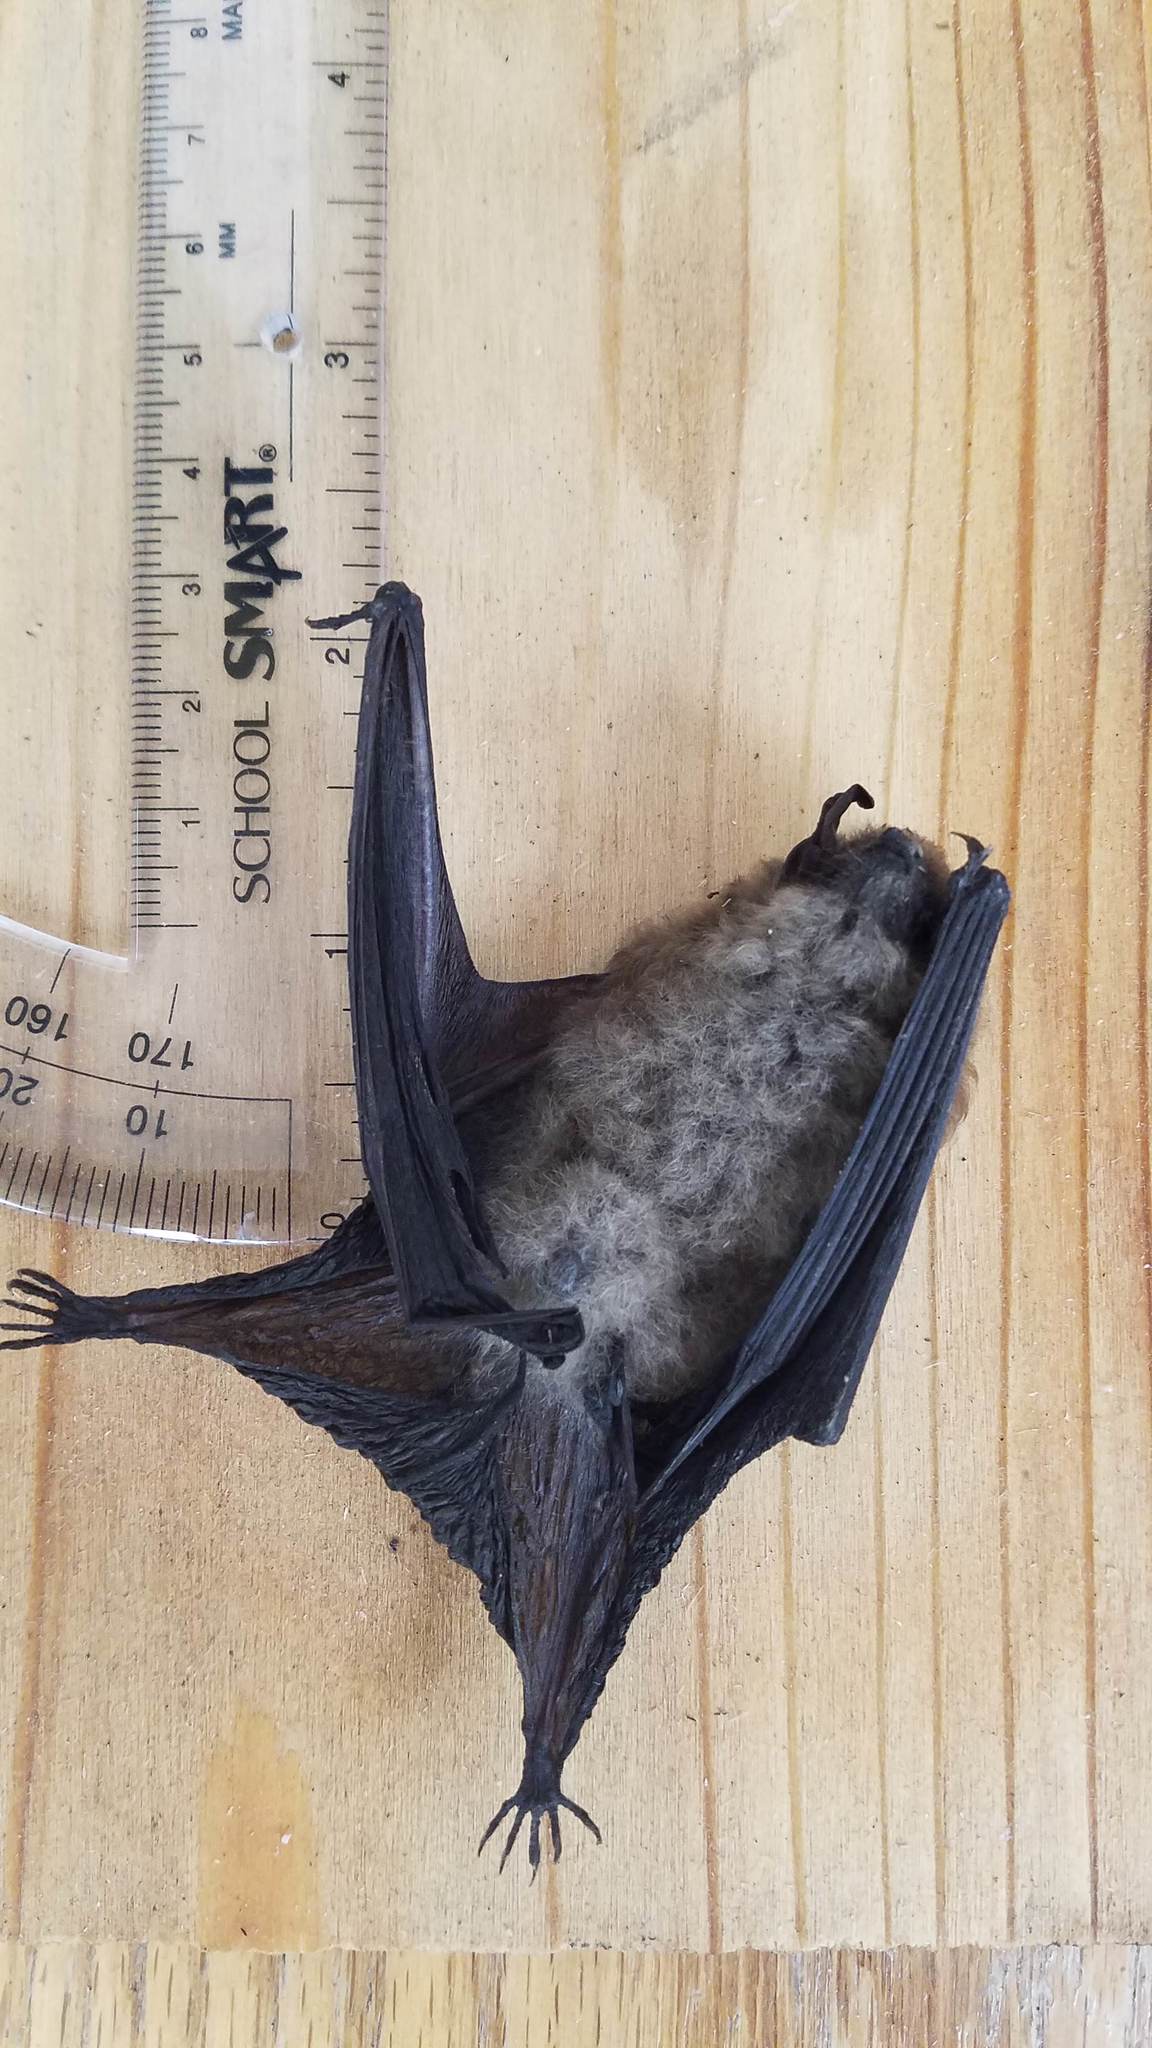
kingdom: Animalia
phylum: Chordata
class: Mammalia
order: Chiroptera
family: Vespertilionidae
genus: Eptesicus
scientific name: Eptesicus fuscus
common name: Big brown bat
